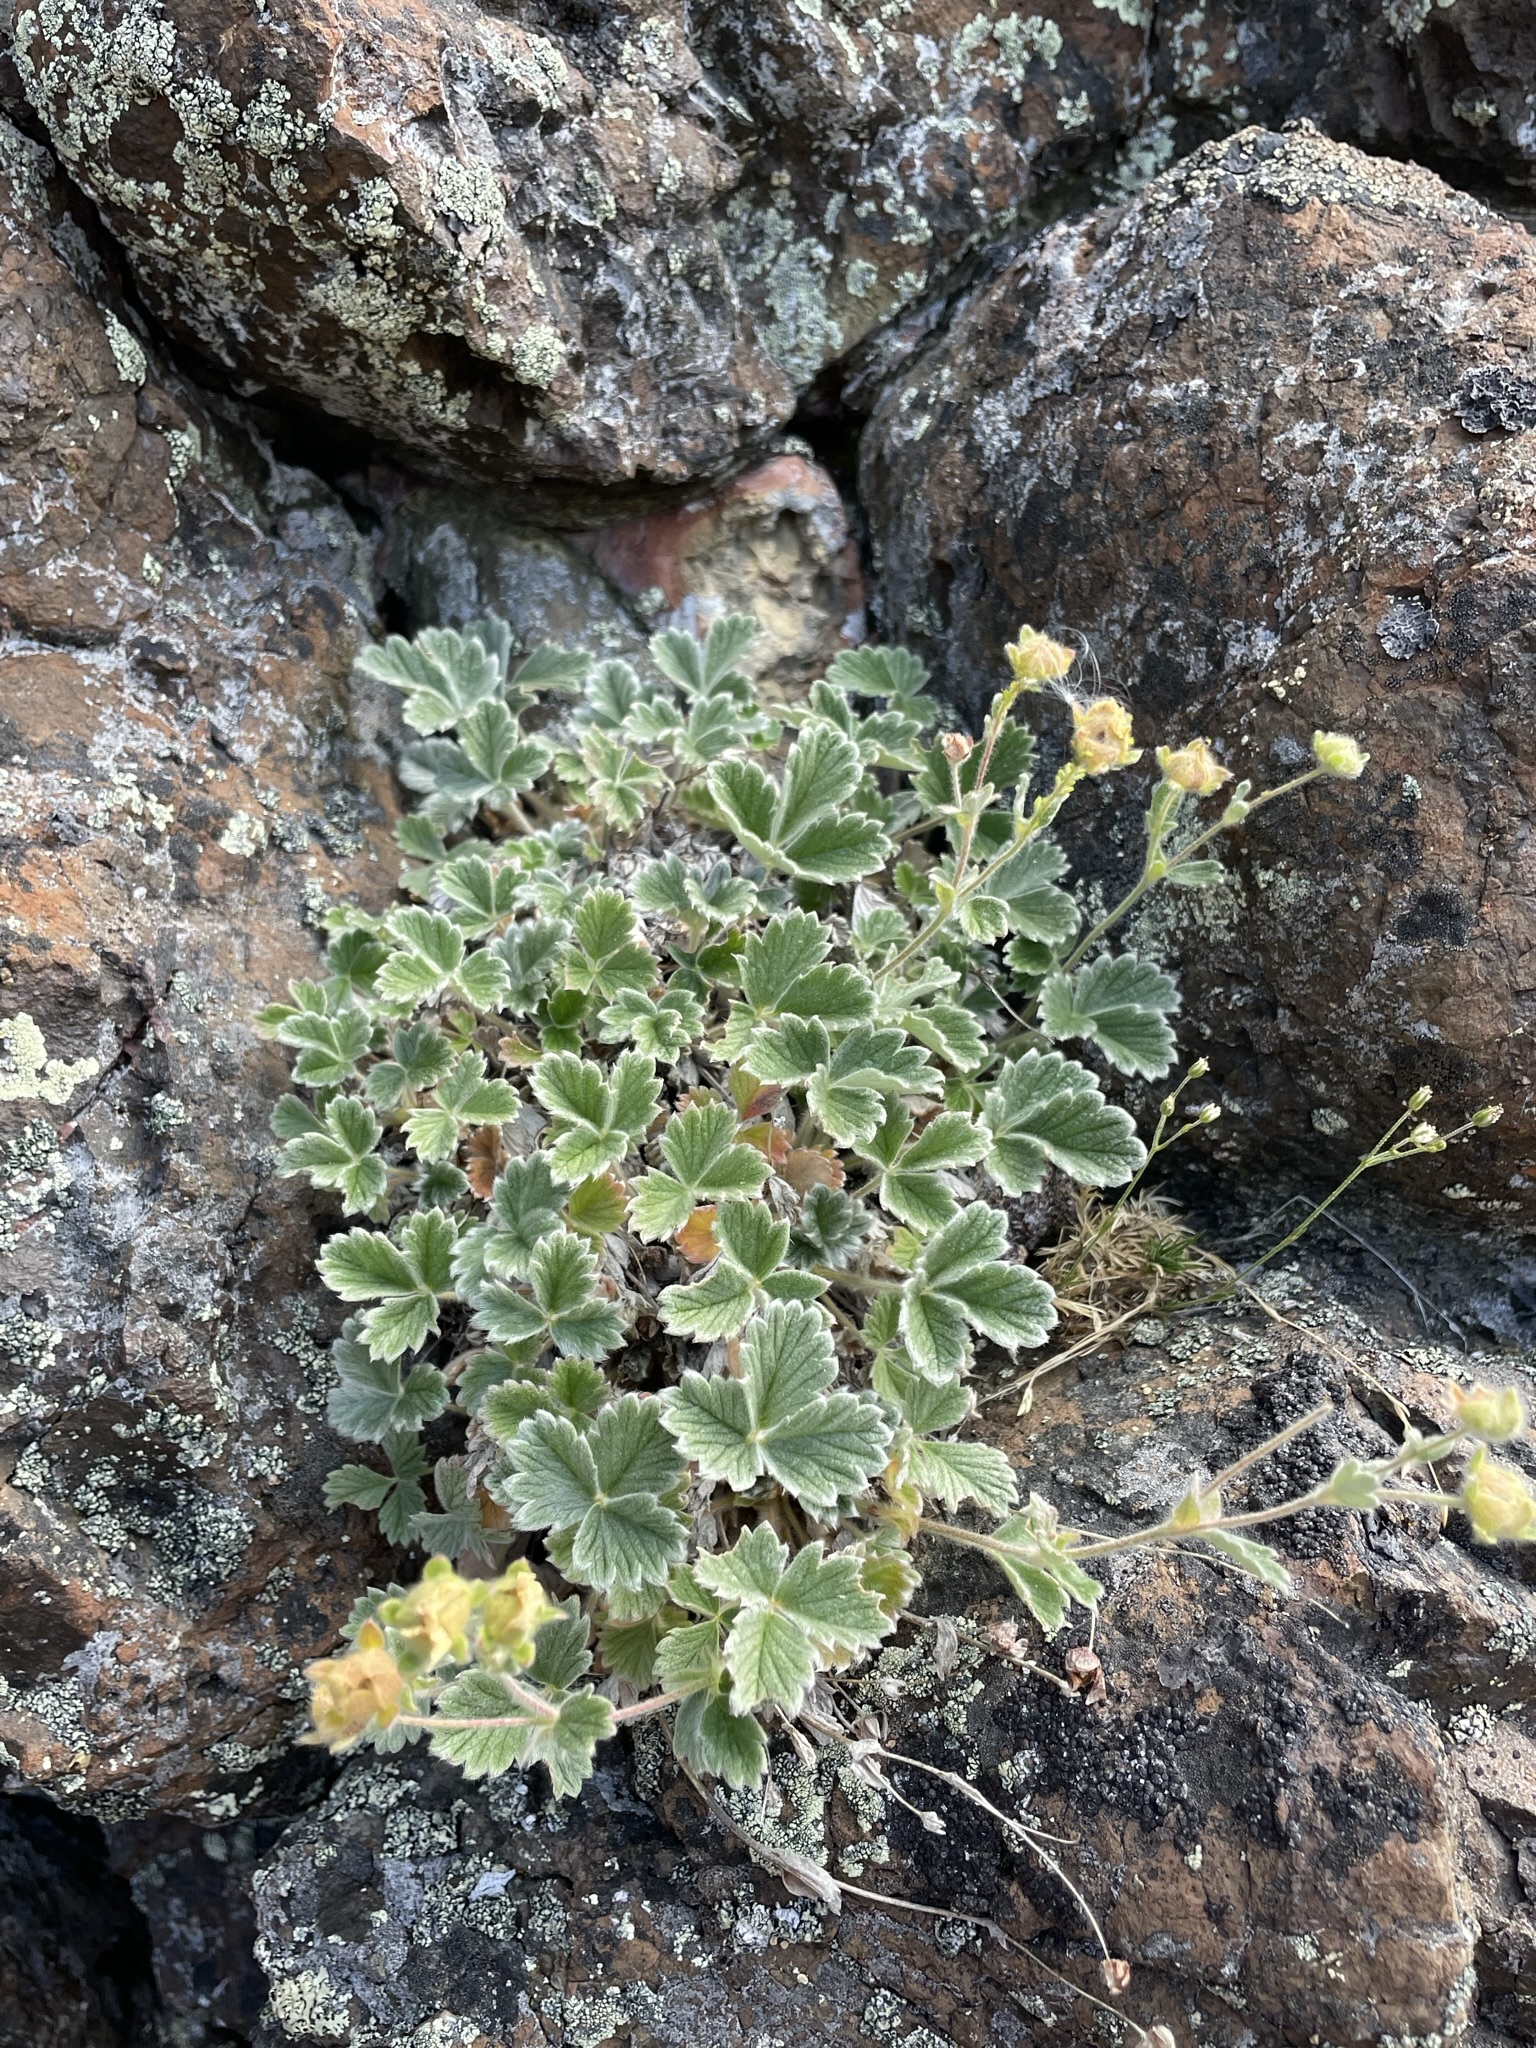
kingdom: Plantae
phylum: Tracheophyta
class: Magnoliopsida
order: Rosales
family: Rosaceae
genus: Potentilla
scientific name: Potentilla villosa
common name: Northern cinquefoil
